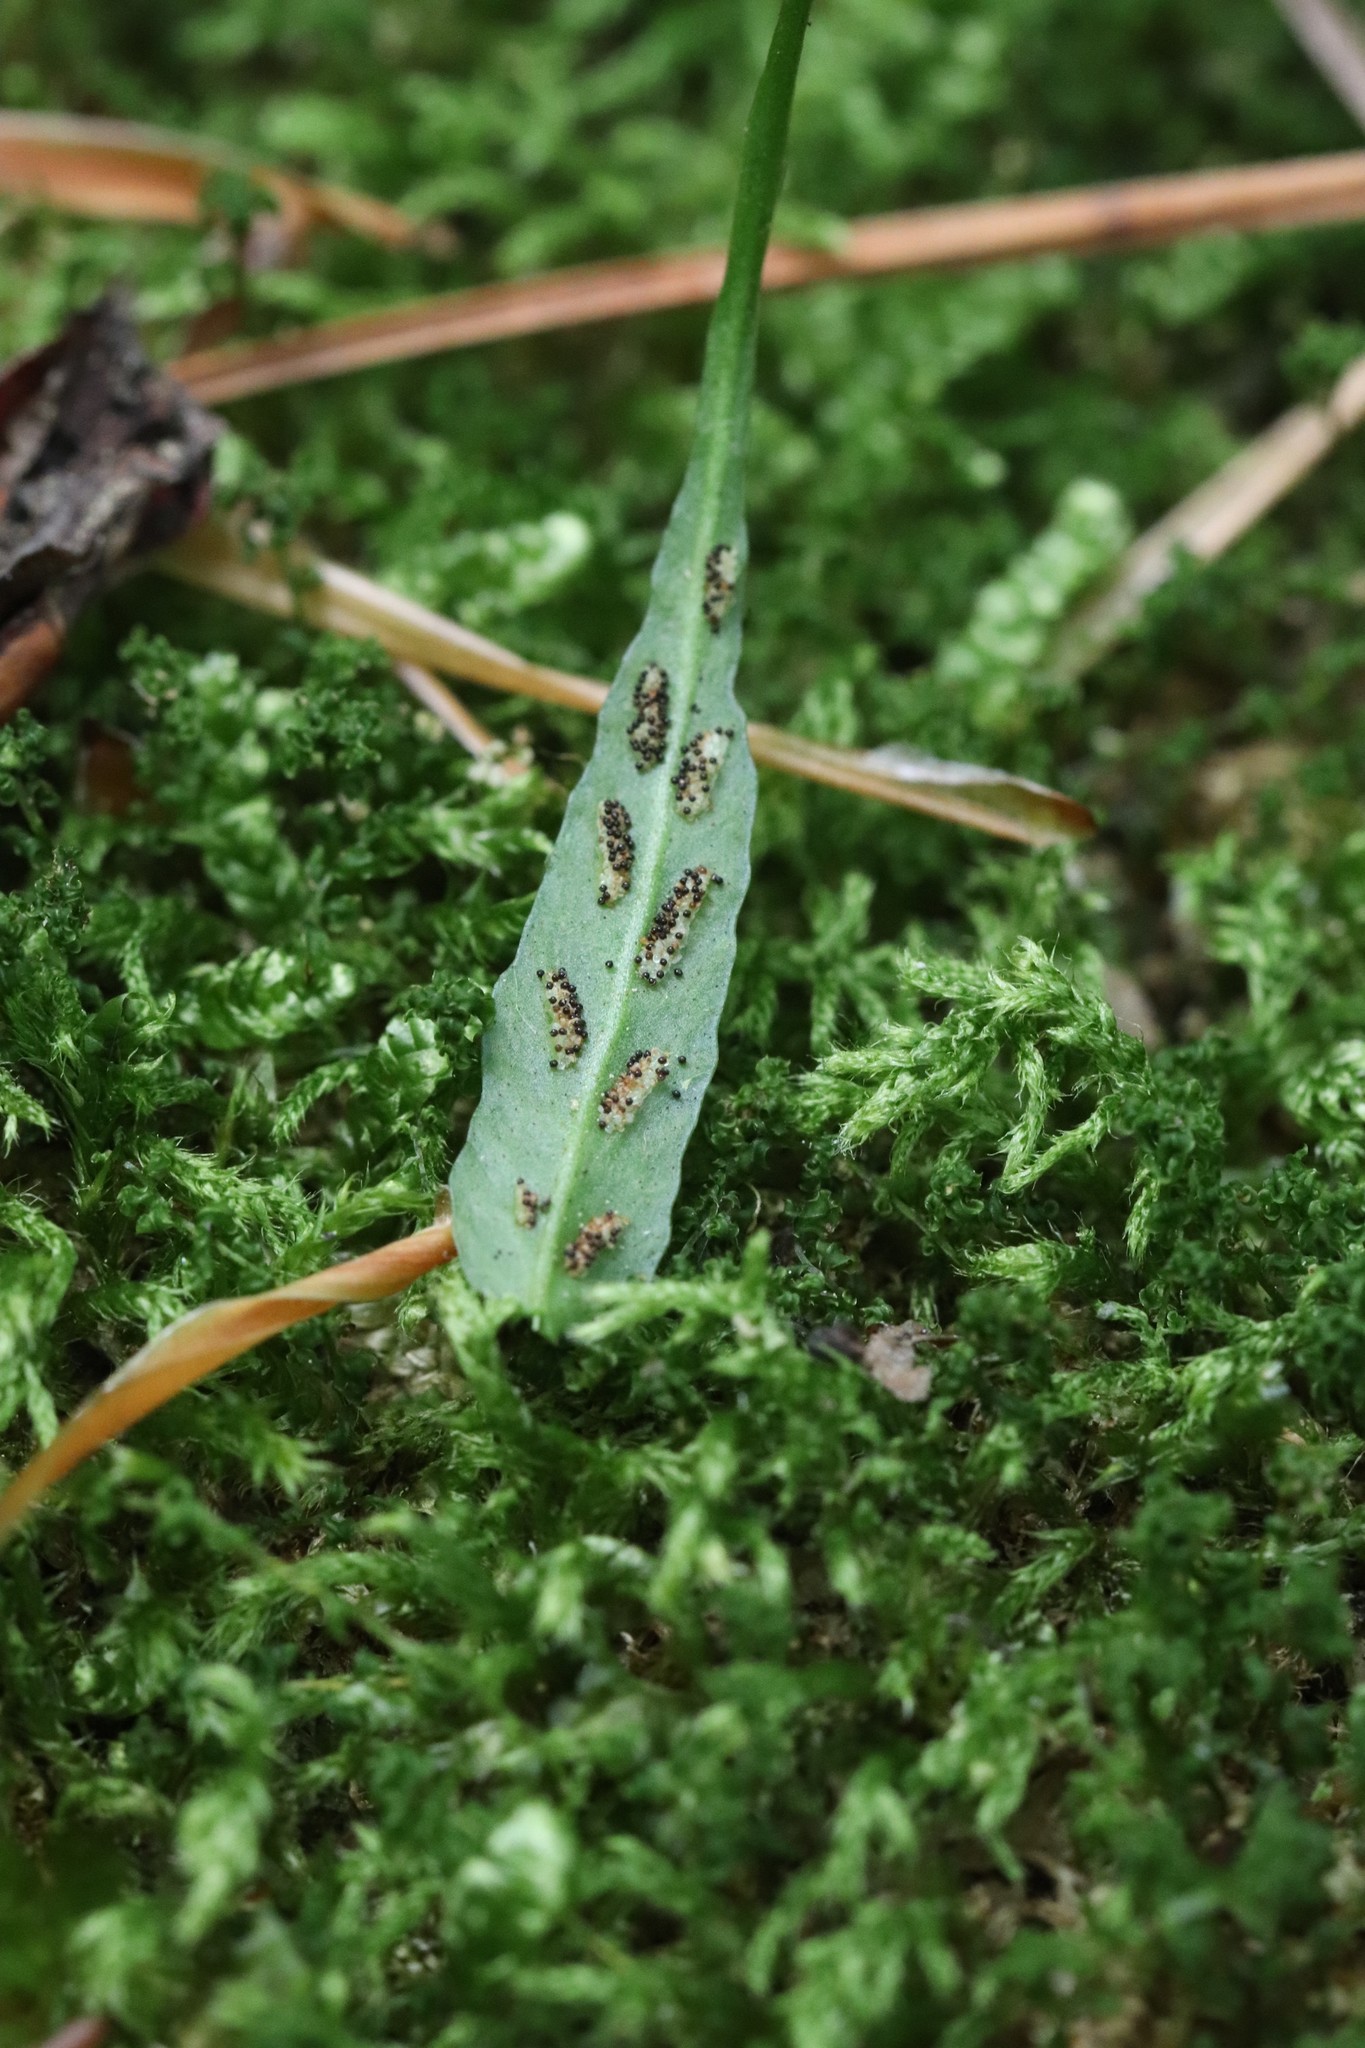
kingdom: Plantae
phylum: Tracheophyta
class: Polypodiopsida
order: Polypodiales
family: Aspleniaceae
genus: Asplenium
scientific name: Asplenium ruprechtii
